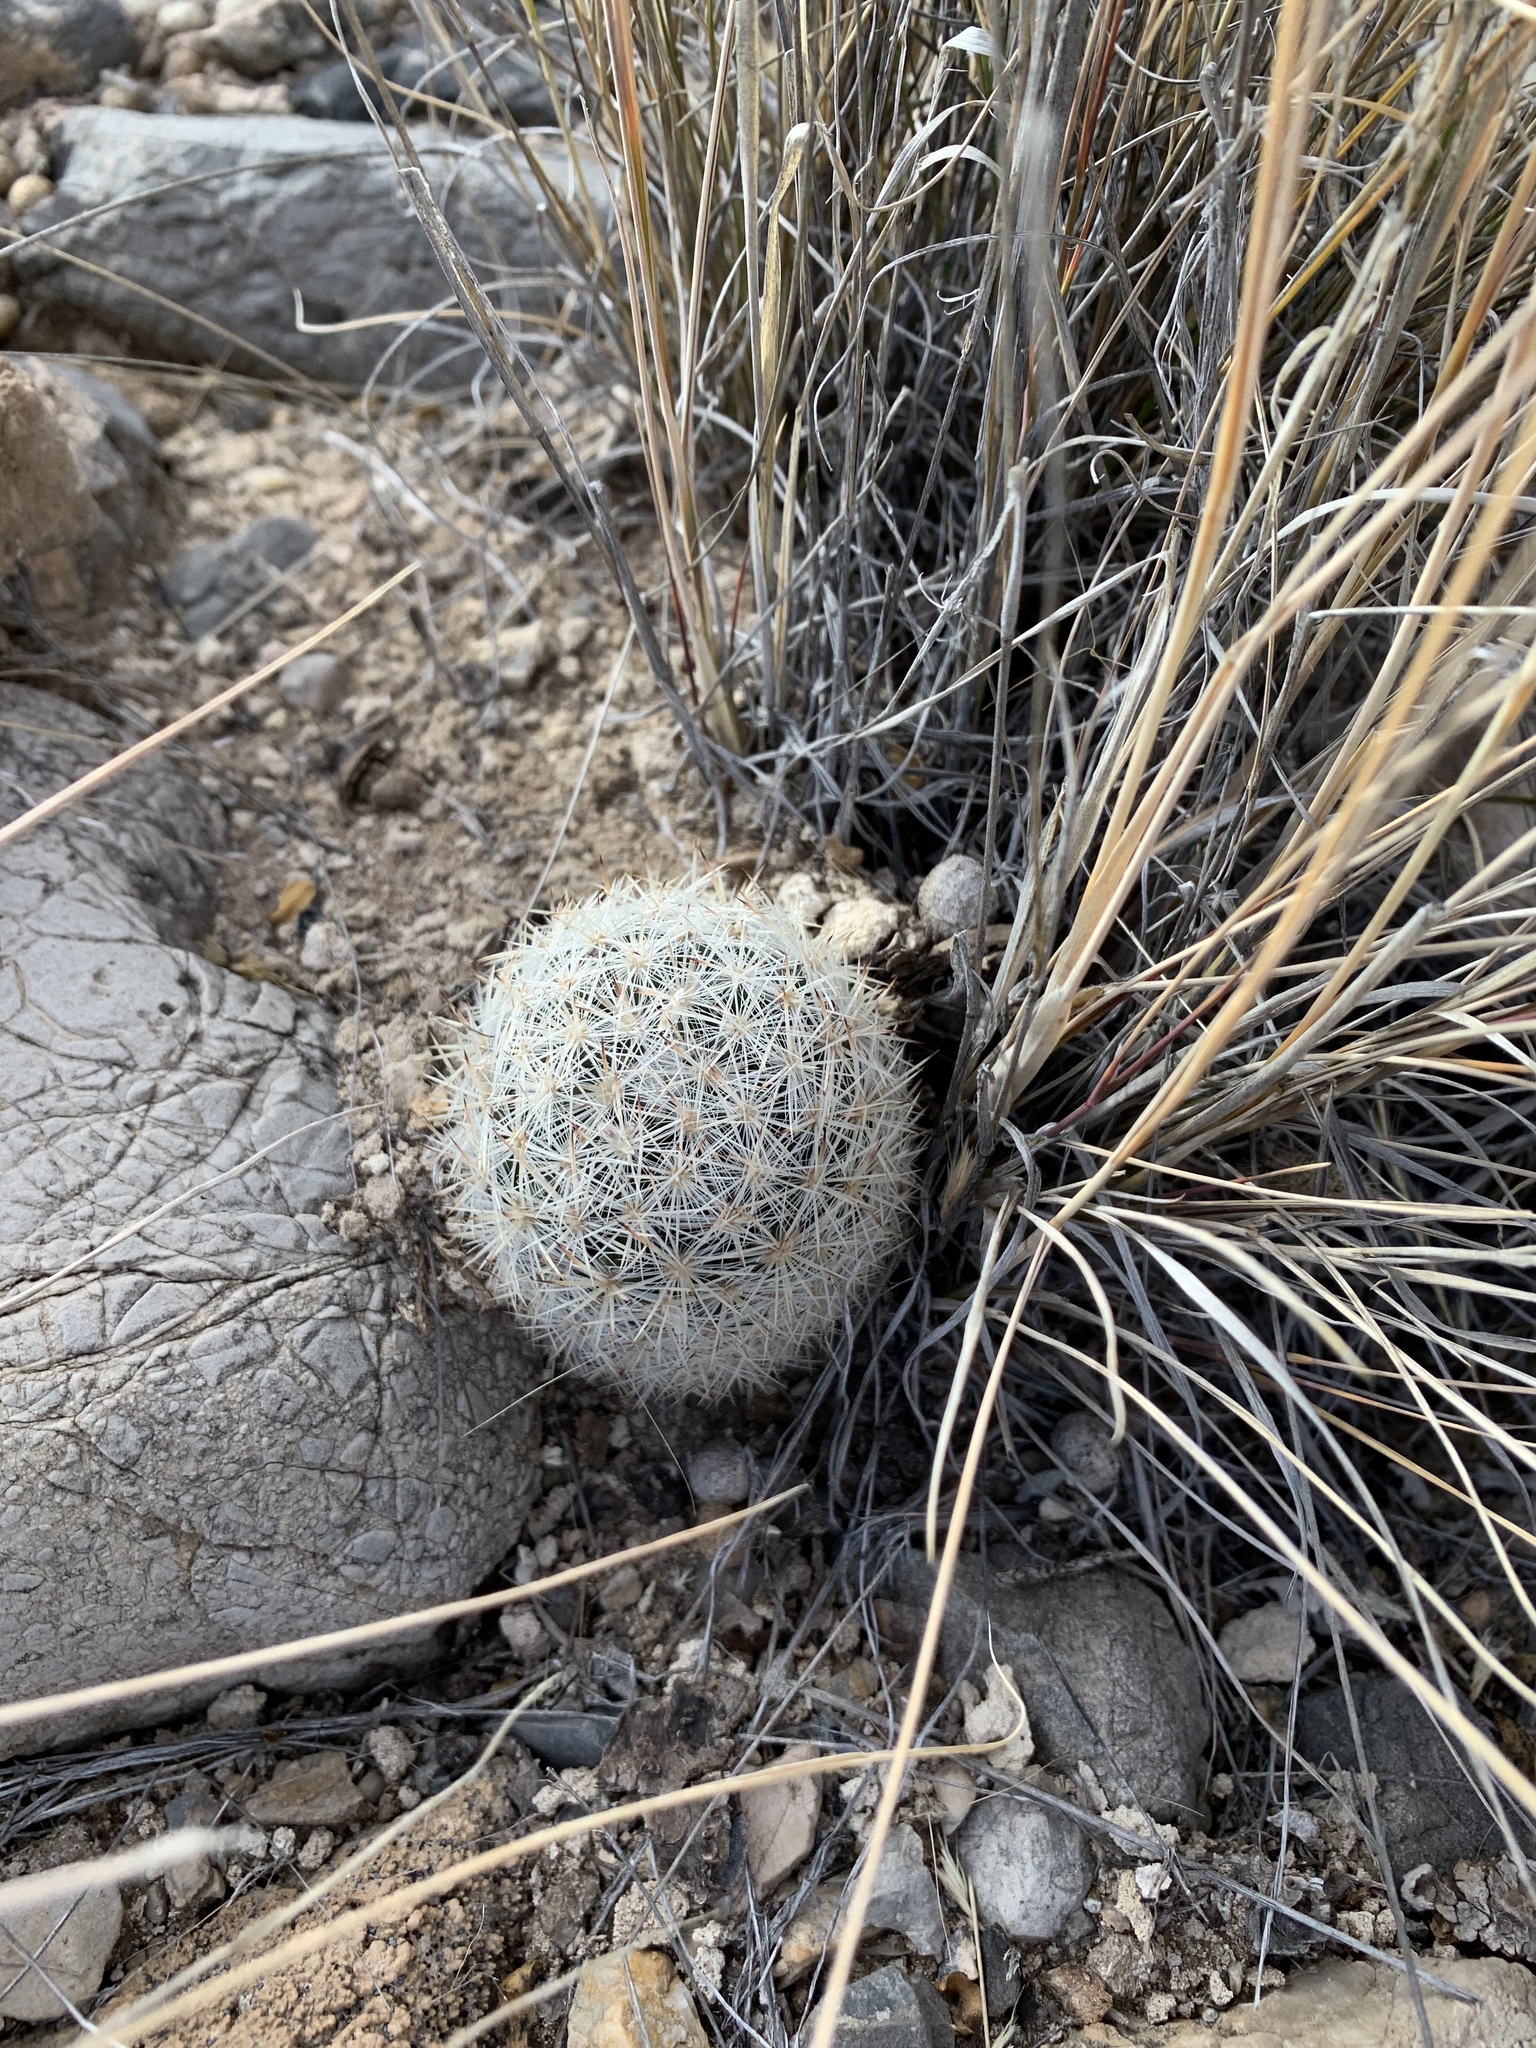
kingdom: Plantae
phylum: Tracheophyta
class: Magnoliopsida
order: Caryophyllales
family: Cactaceae
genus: Pelecyphora
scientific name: Pelecyphora sneedii
